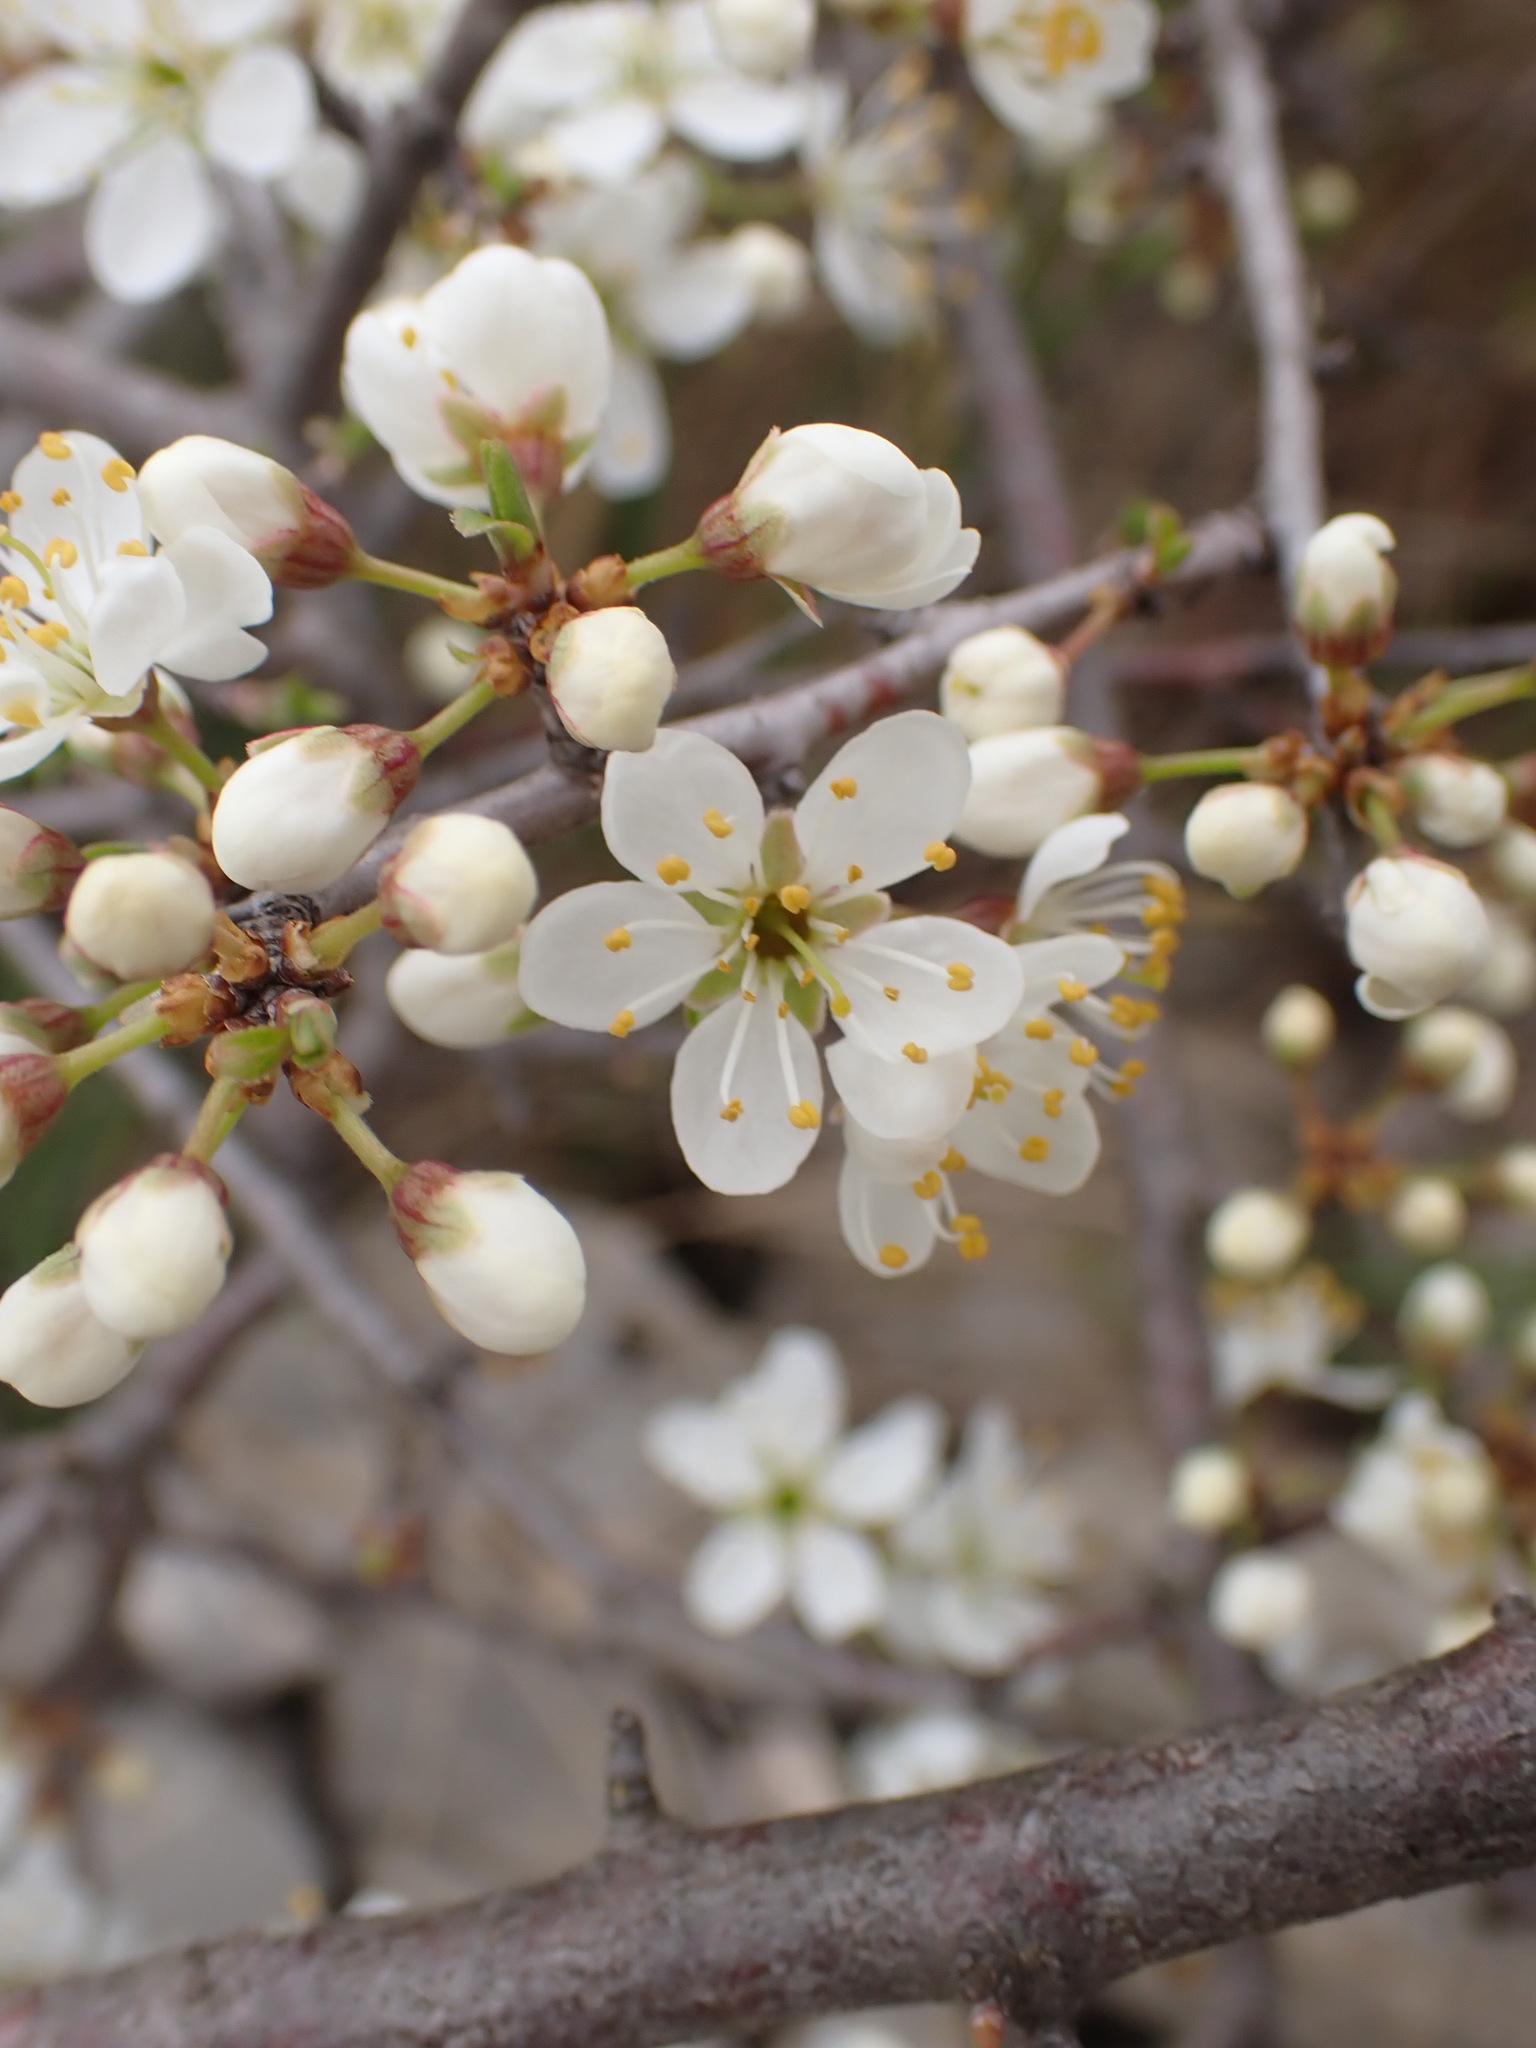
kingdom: Plantae
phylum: Tracheophyta
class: Magnoliopsida
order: Rosales
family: Rosaceae
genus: Prunus
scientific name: Prunus spinosa
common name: Blackthorn
